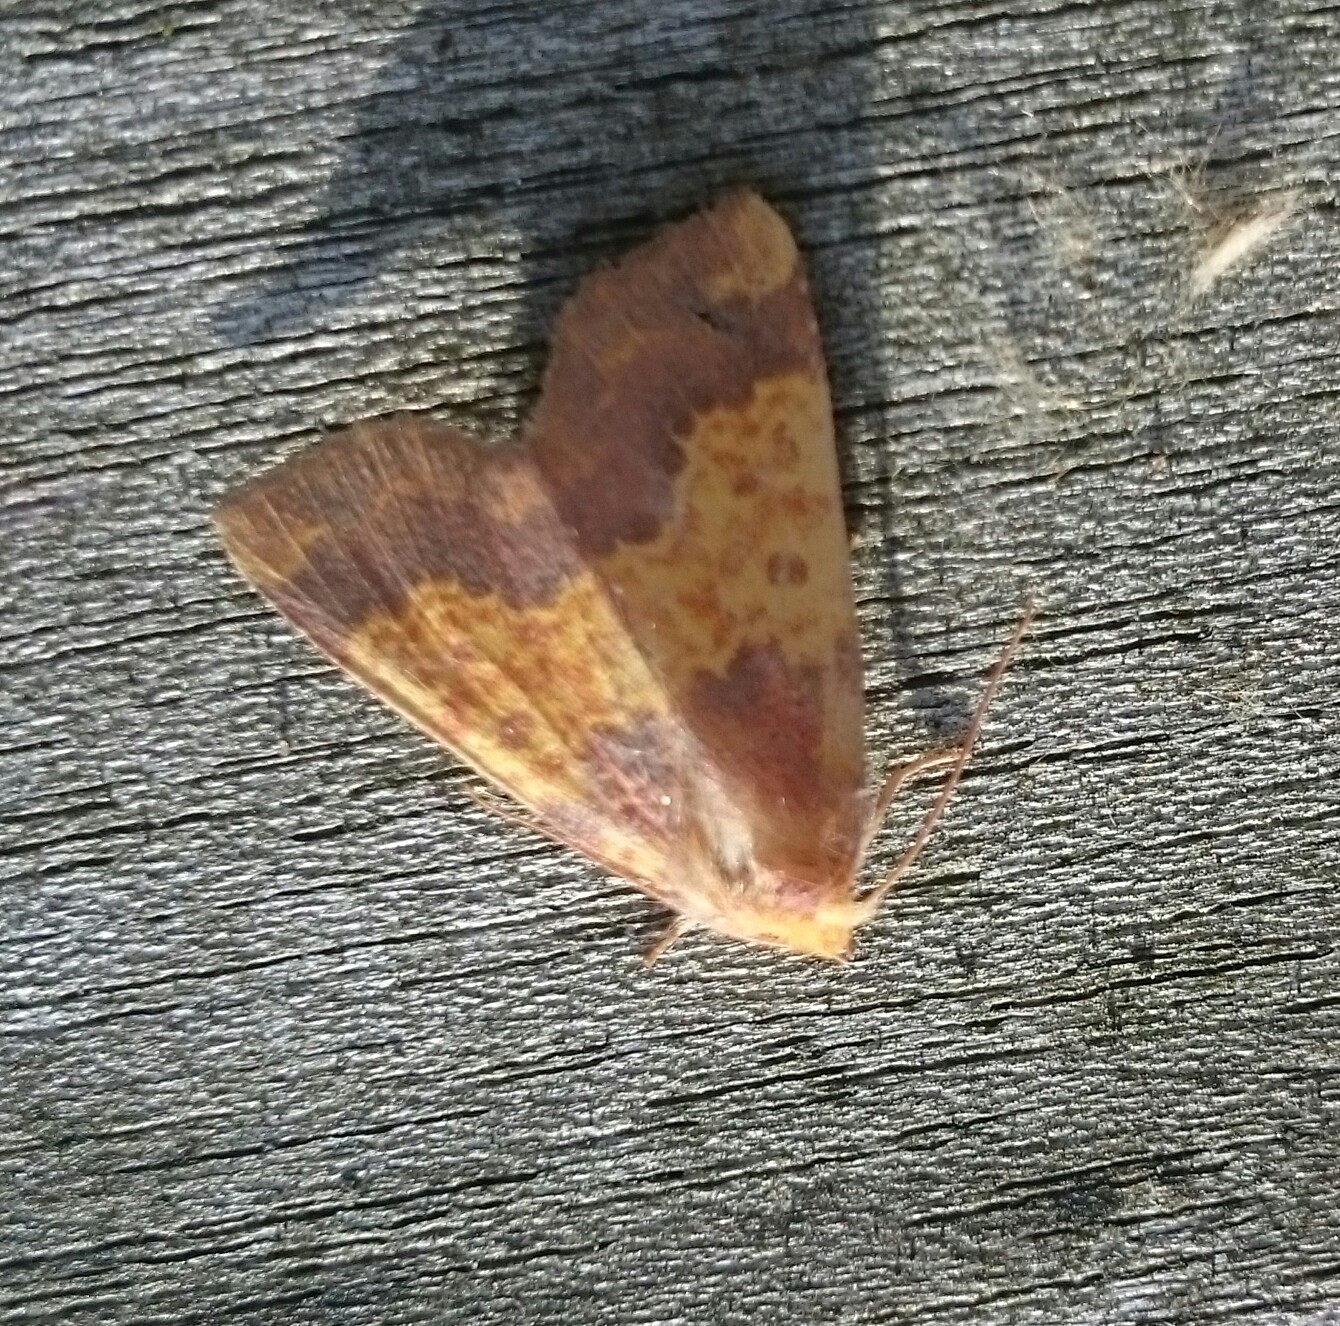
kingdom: Animalia
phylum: Arthropoda
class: Insecta
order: Lepidoptera
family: Noctuidae
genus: Tiliacea
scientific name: Tiliacea aurago
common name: Barred sallow
